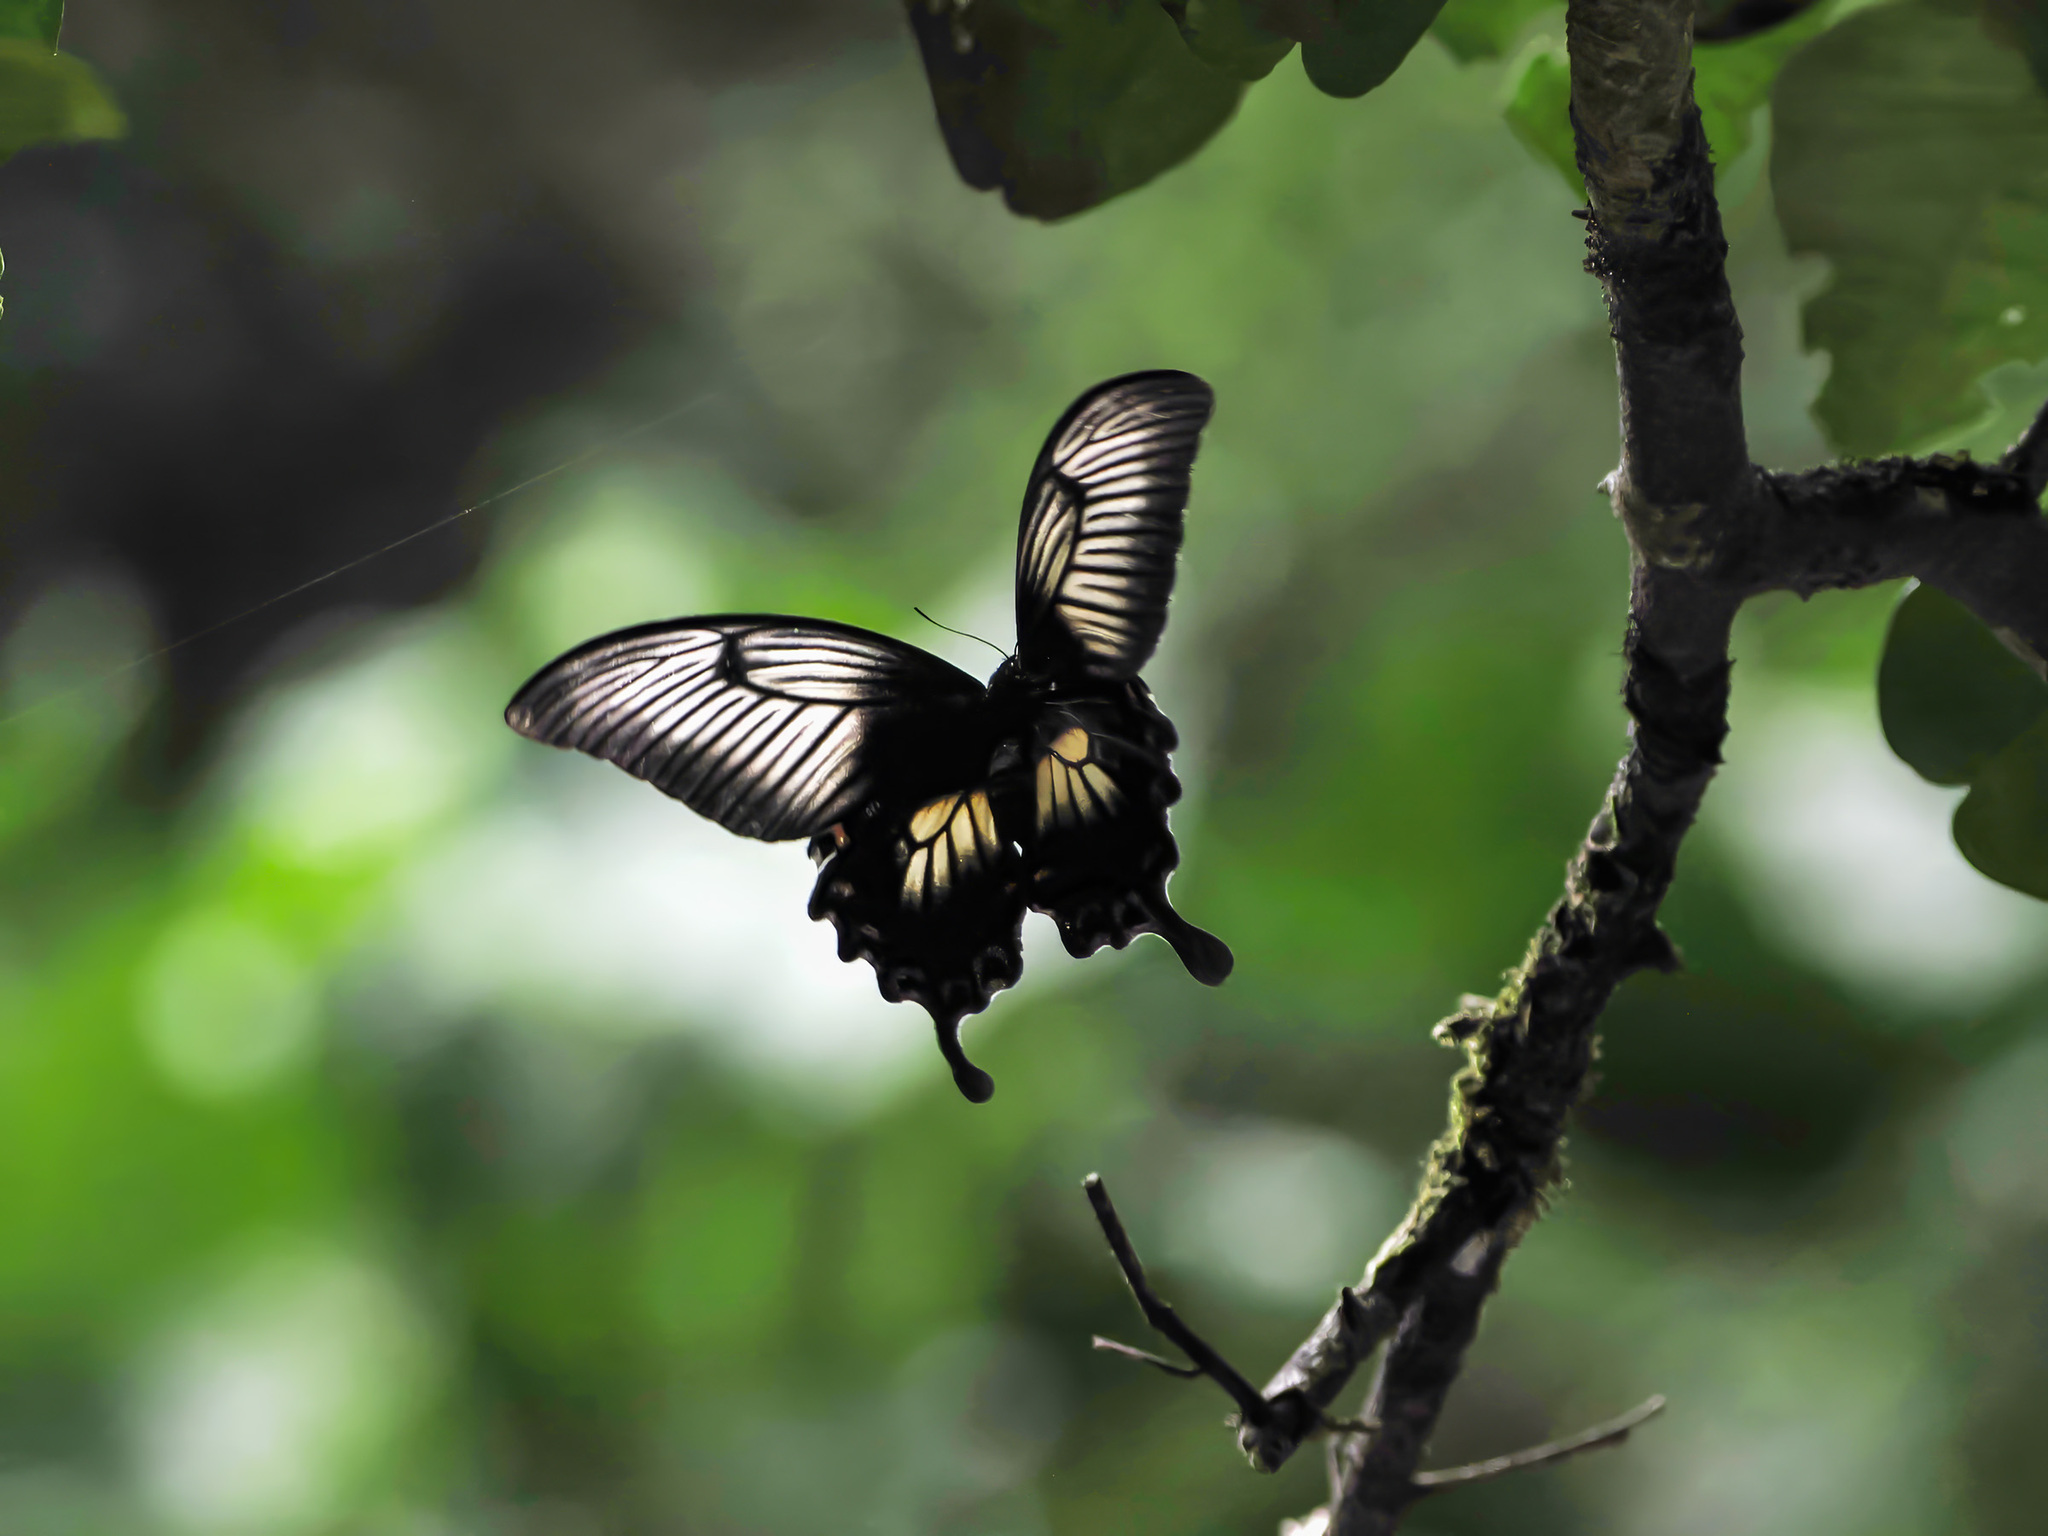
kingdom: Animalia
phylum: Arthropoda
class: Insecta
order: Lepidoptera
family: Papilionidae
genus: Papilio
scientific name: Papilio ascalaphus
